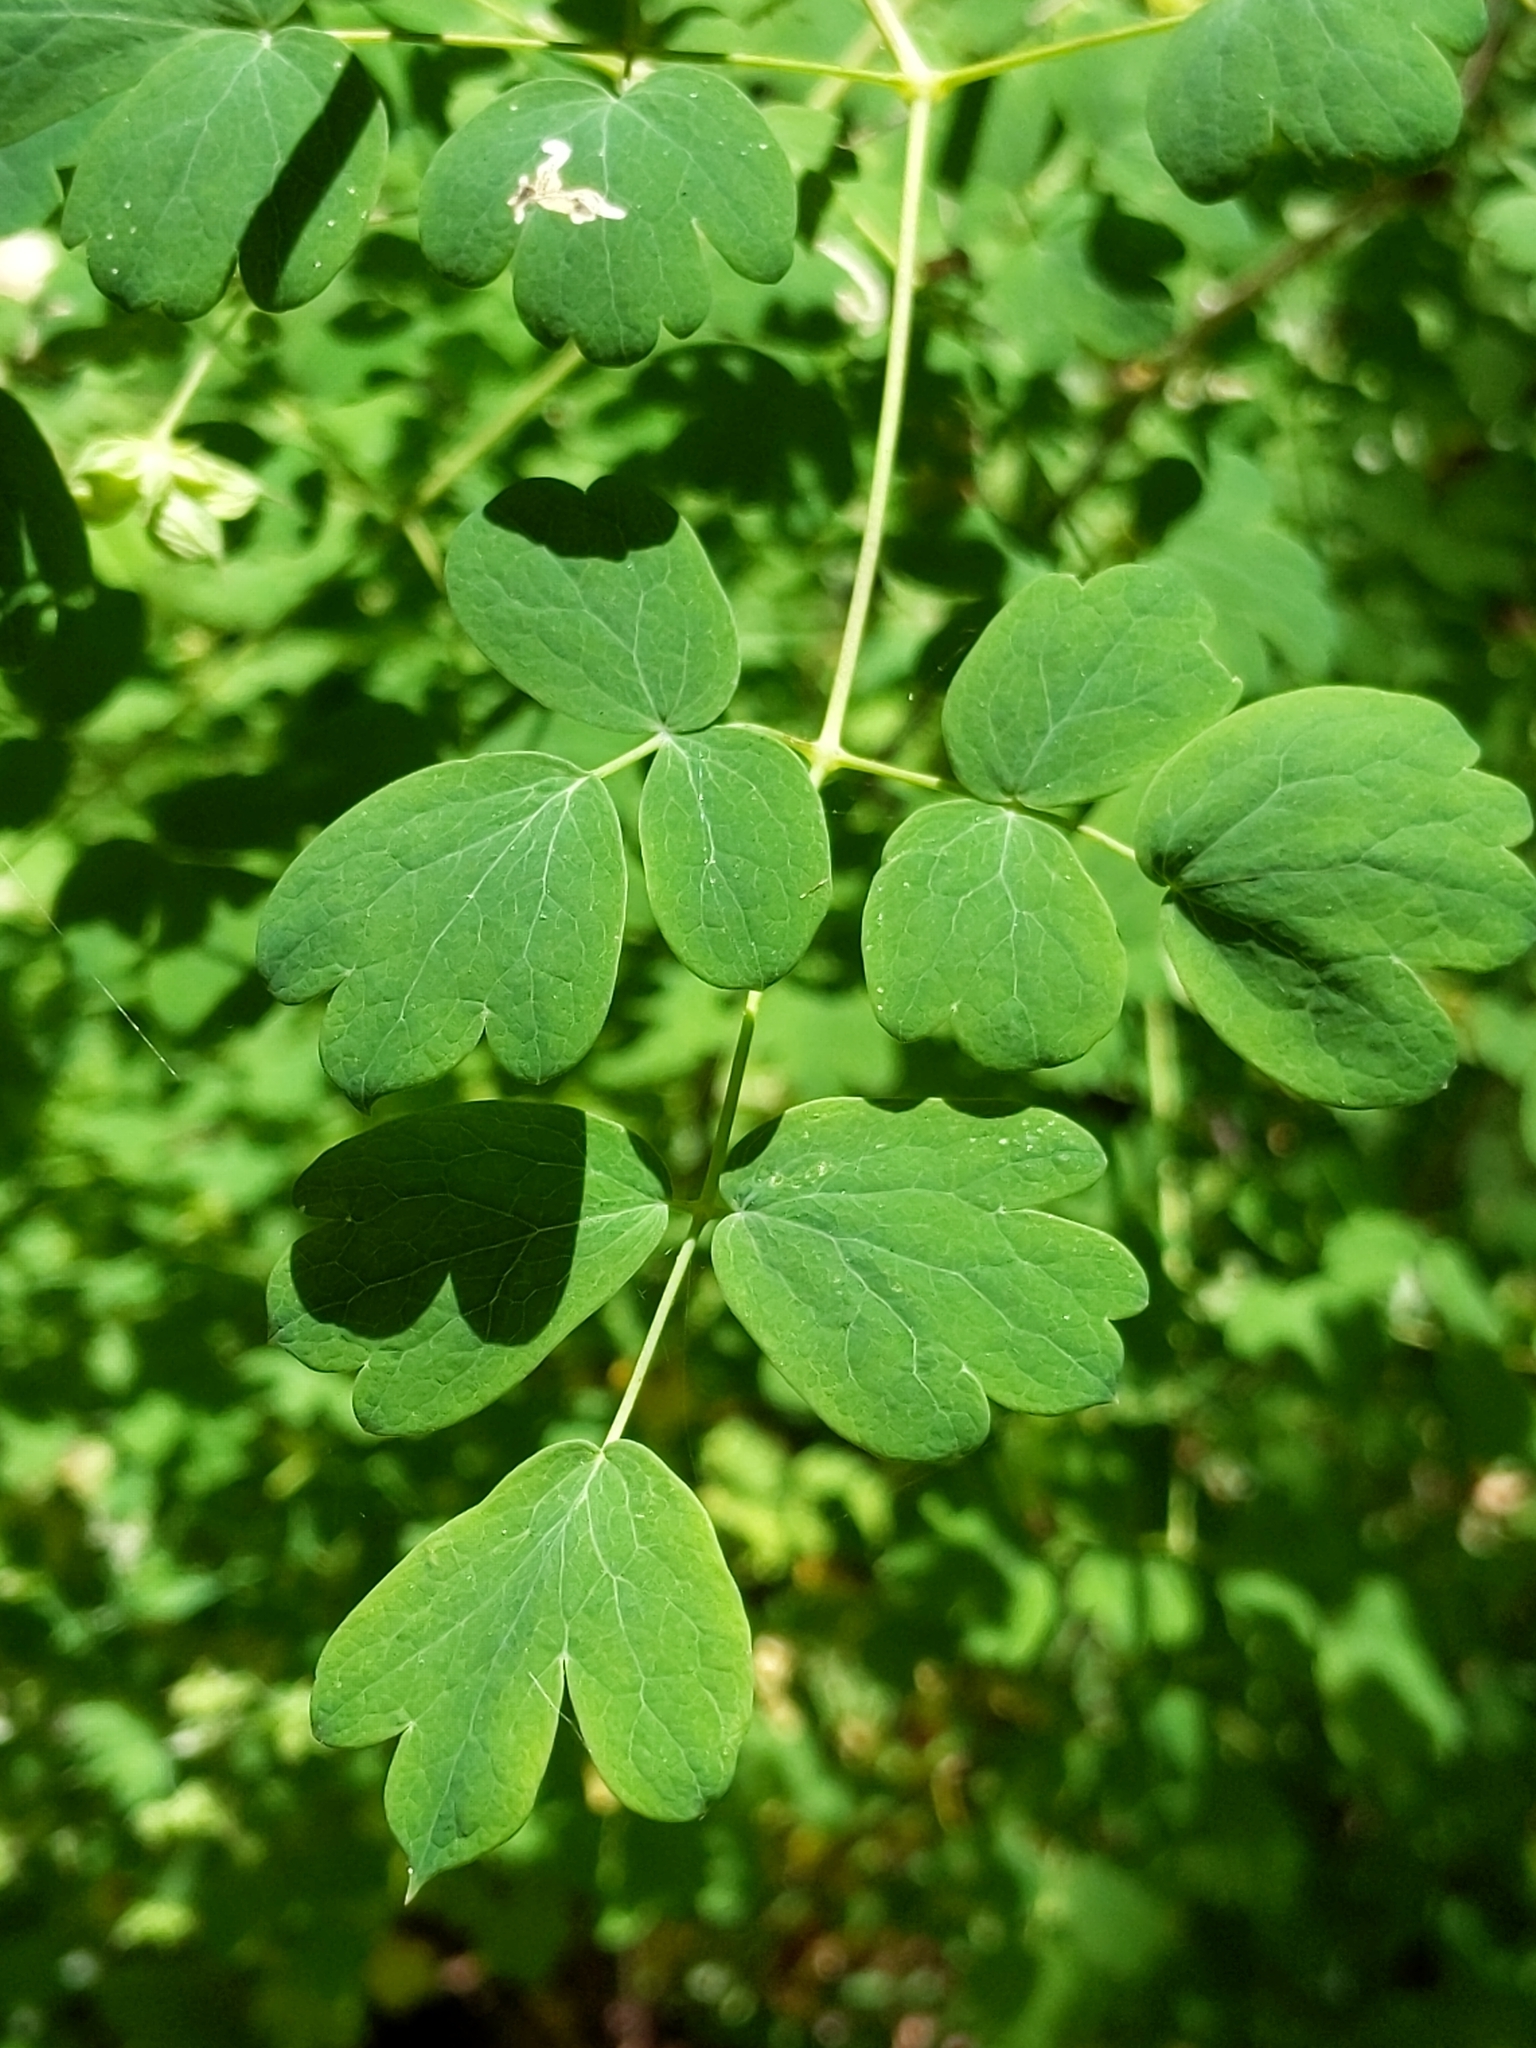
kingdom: Plantae
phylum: Tracheophyta
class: Magnoliopsida
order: Ranunculales
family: Ranunculaceae
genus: Thalictrum
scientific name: Thalictrum fendleri
